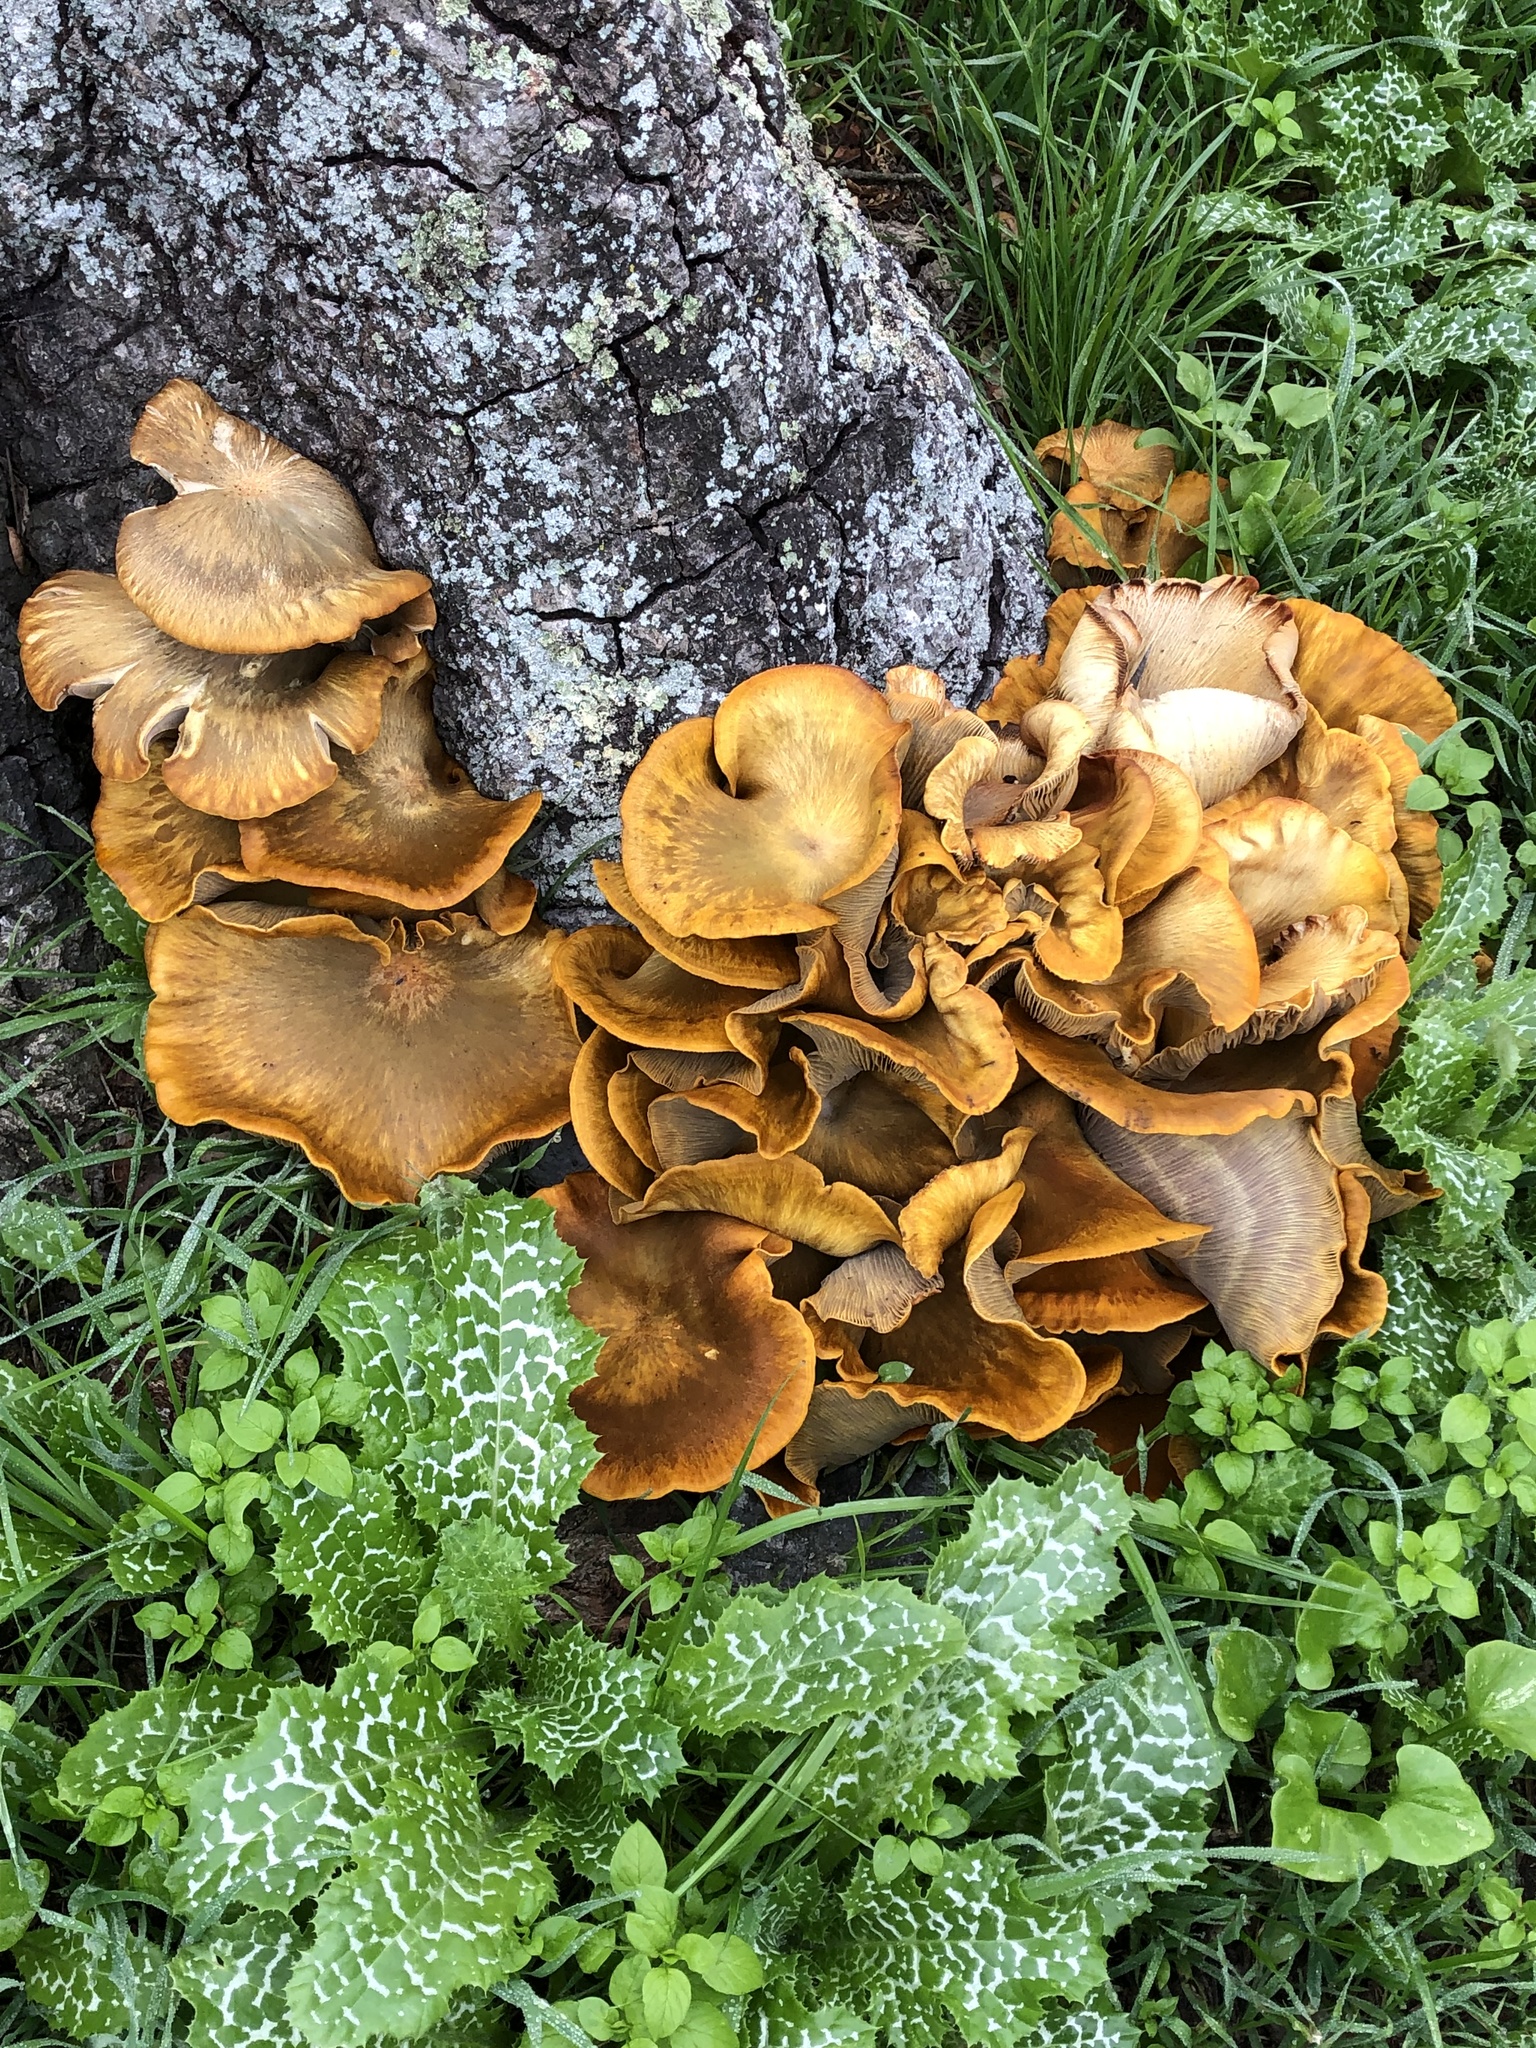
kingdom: Fungi
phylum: Basidiomycota
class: Agaricomycetes
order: Agaricales
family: Omphalotaceae
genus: Omphalotus
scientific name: Omphalotus olivascens
